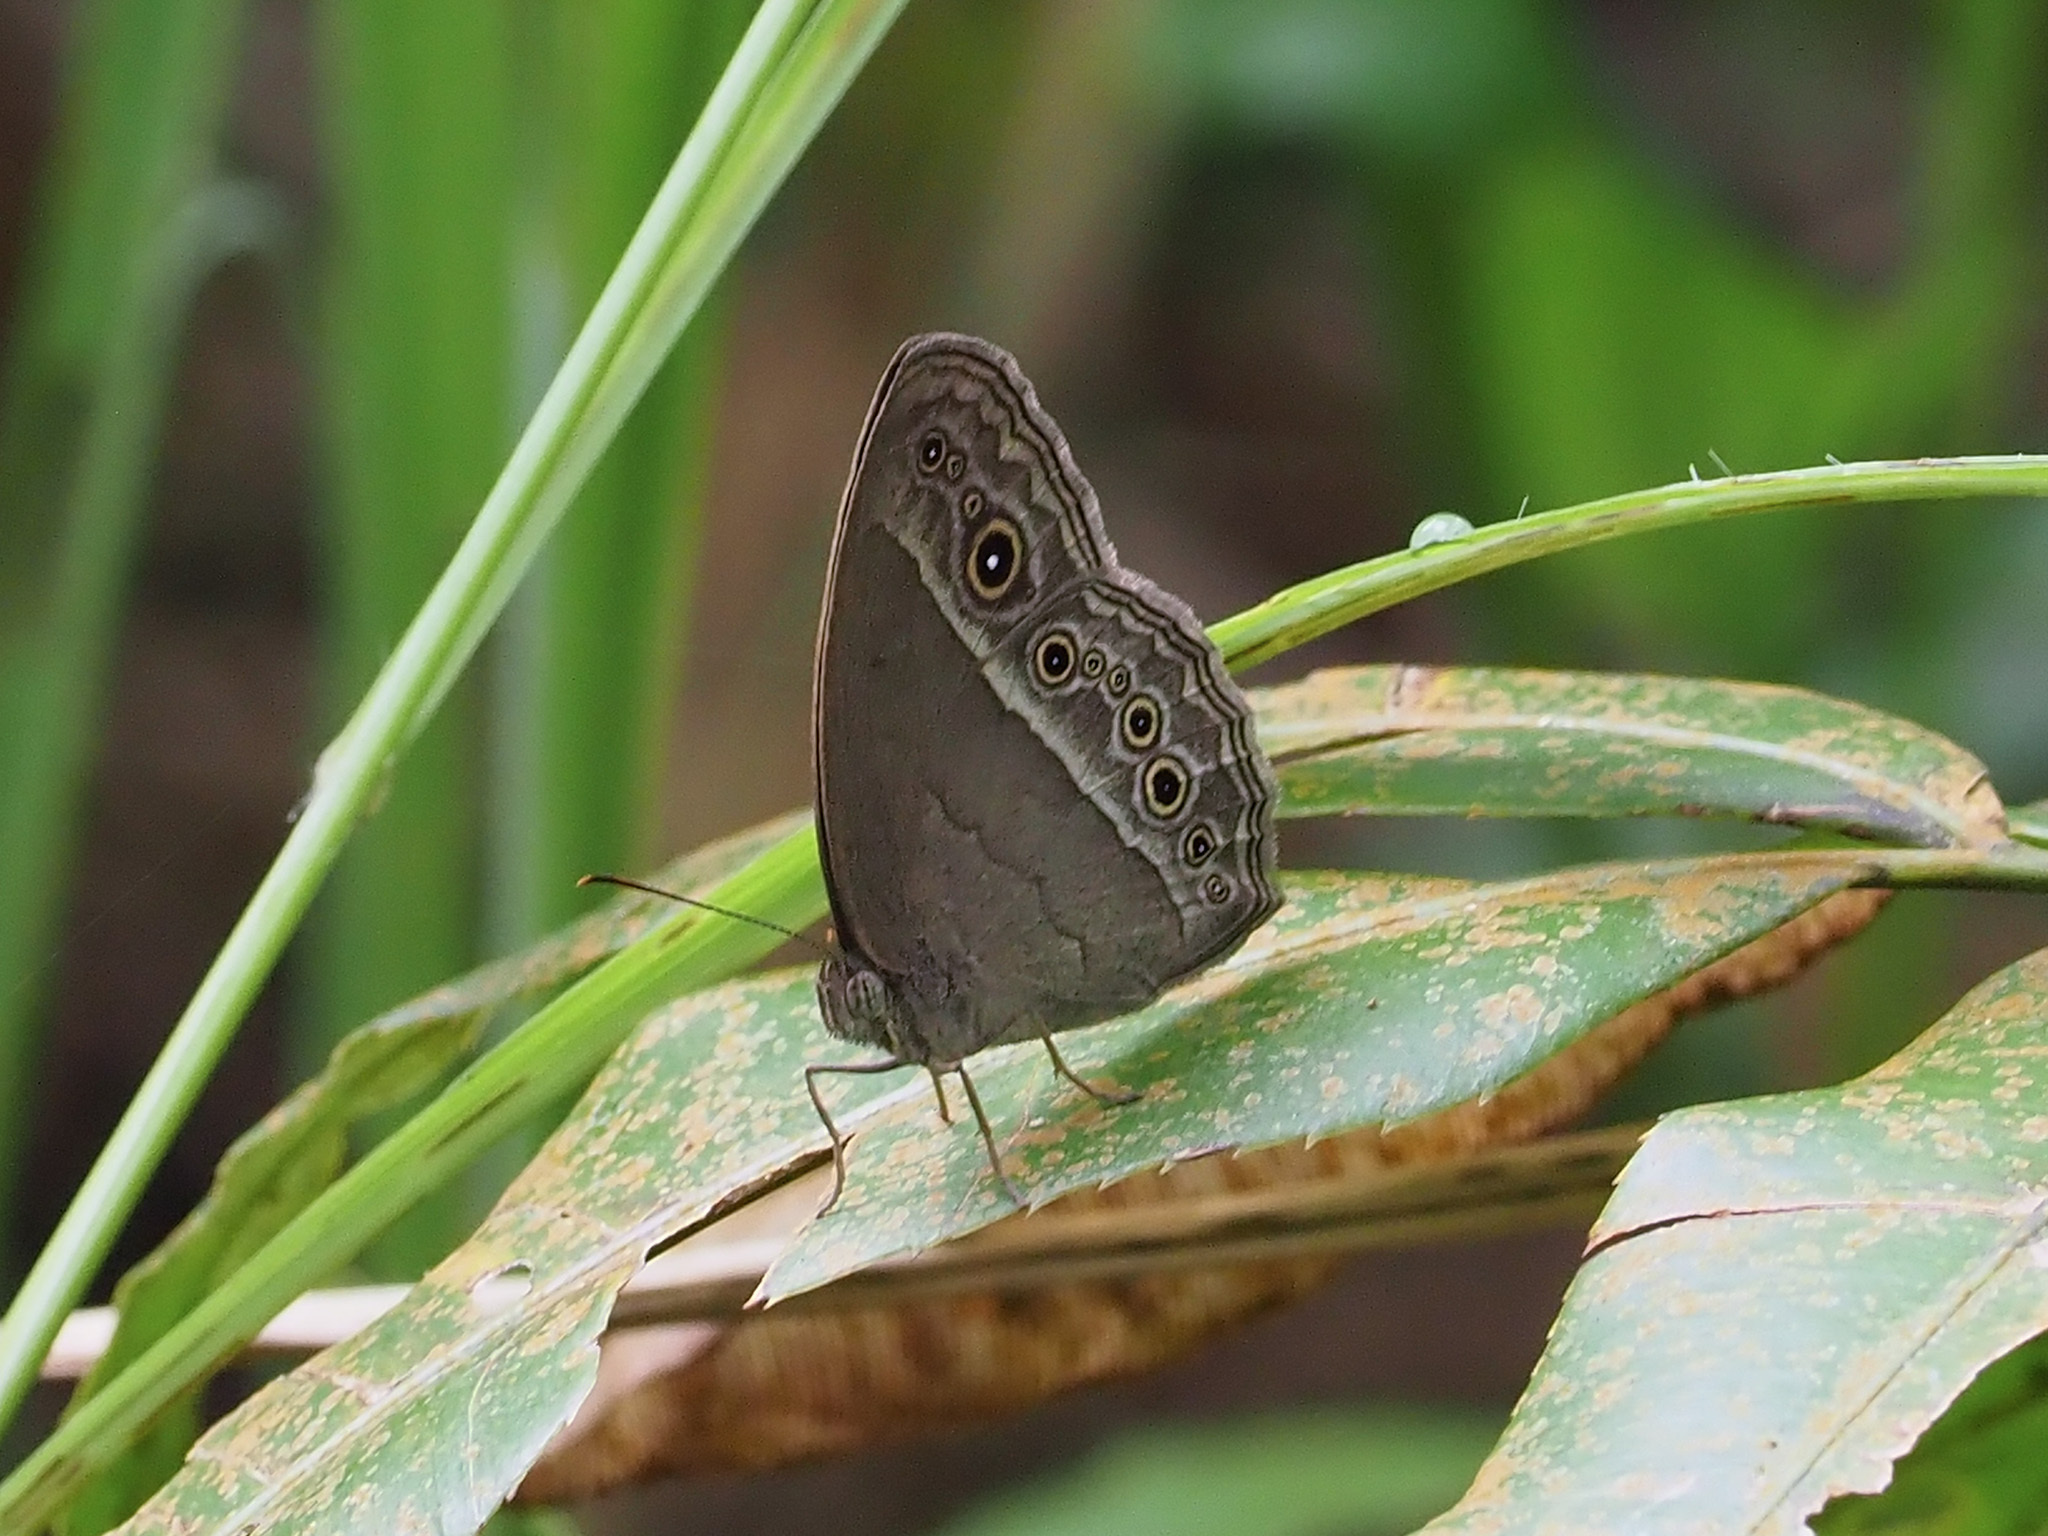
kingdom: Animalia
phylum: Arthropoda
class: Insecta
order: Lepidoptera
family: Nymphalidae
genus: Mycalesis
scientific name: Mycalesis perseoides
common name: Burmese bushbrown
